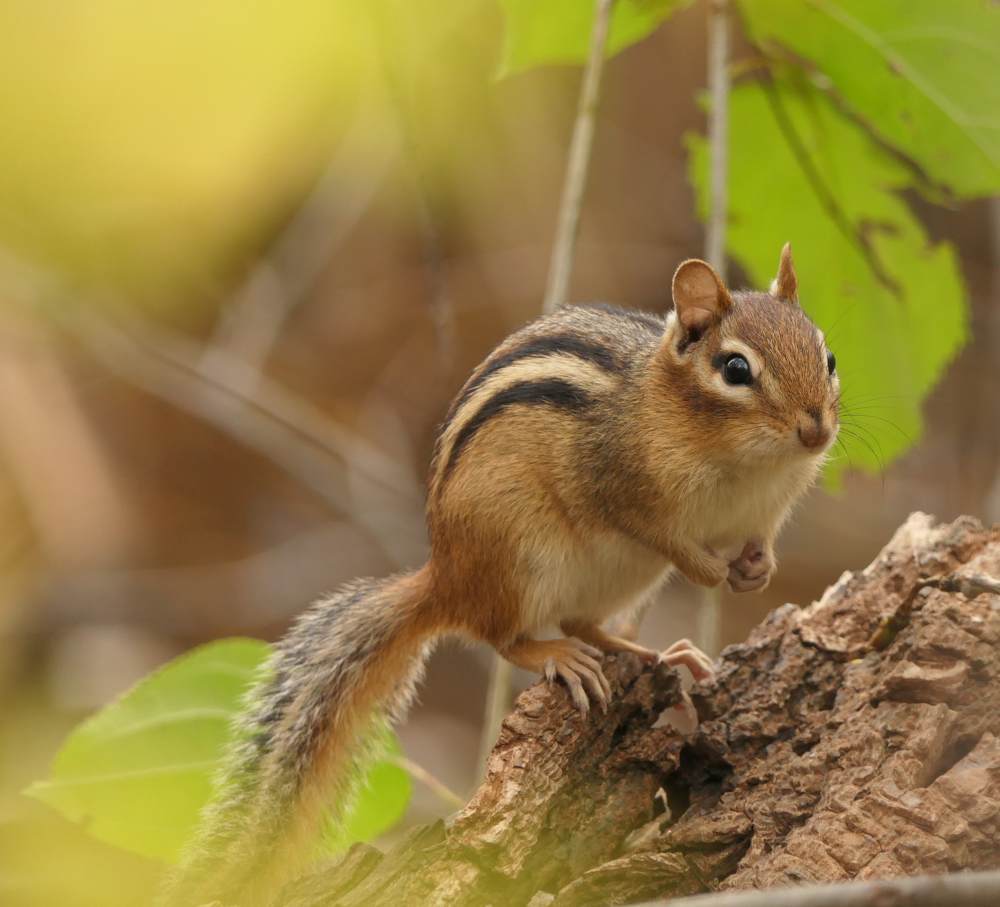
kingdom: Animalia
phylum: Chordata
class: Mammalia
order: Rodentia
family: Sciuridae
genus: Tamias
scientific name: Tamias striatus
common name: Eastern chipmunk
